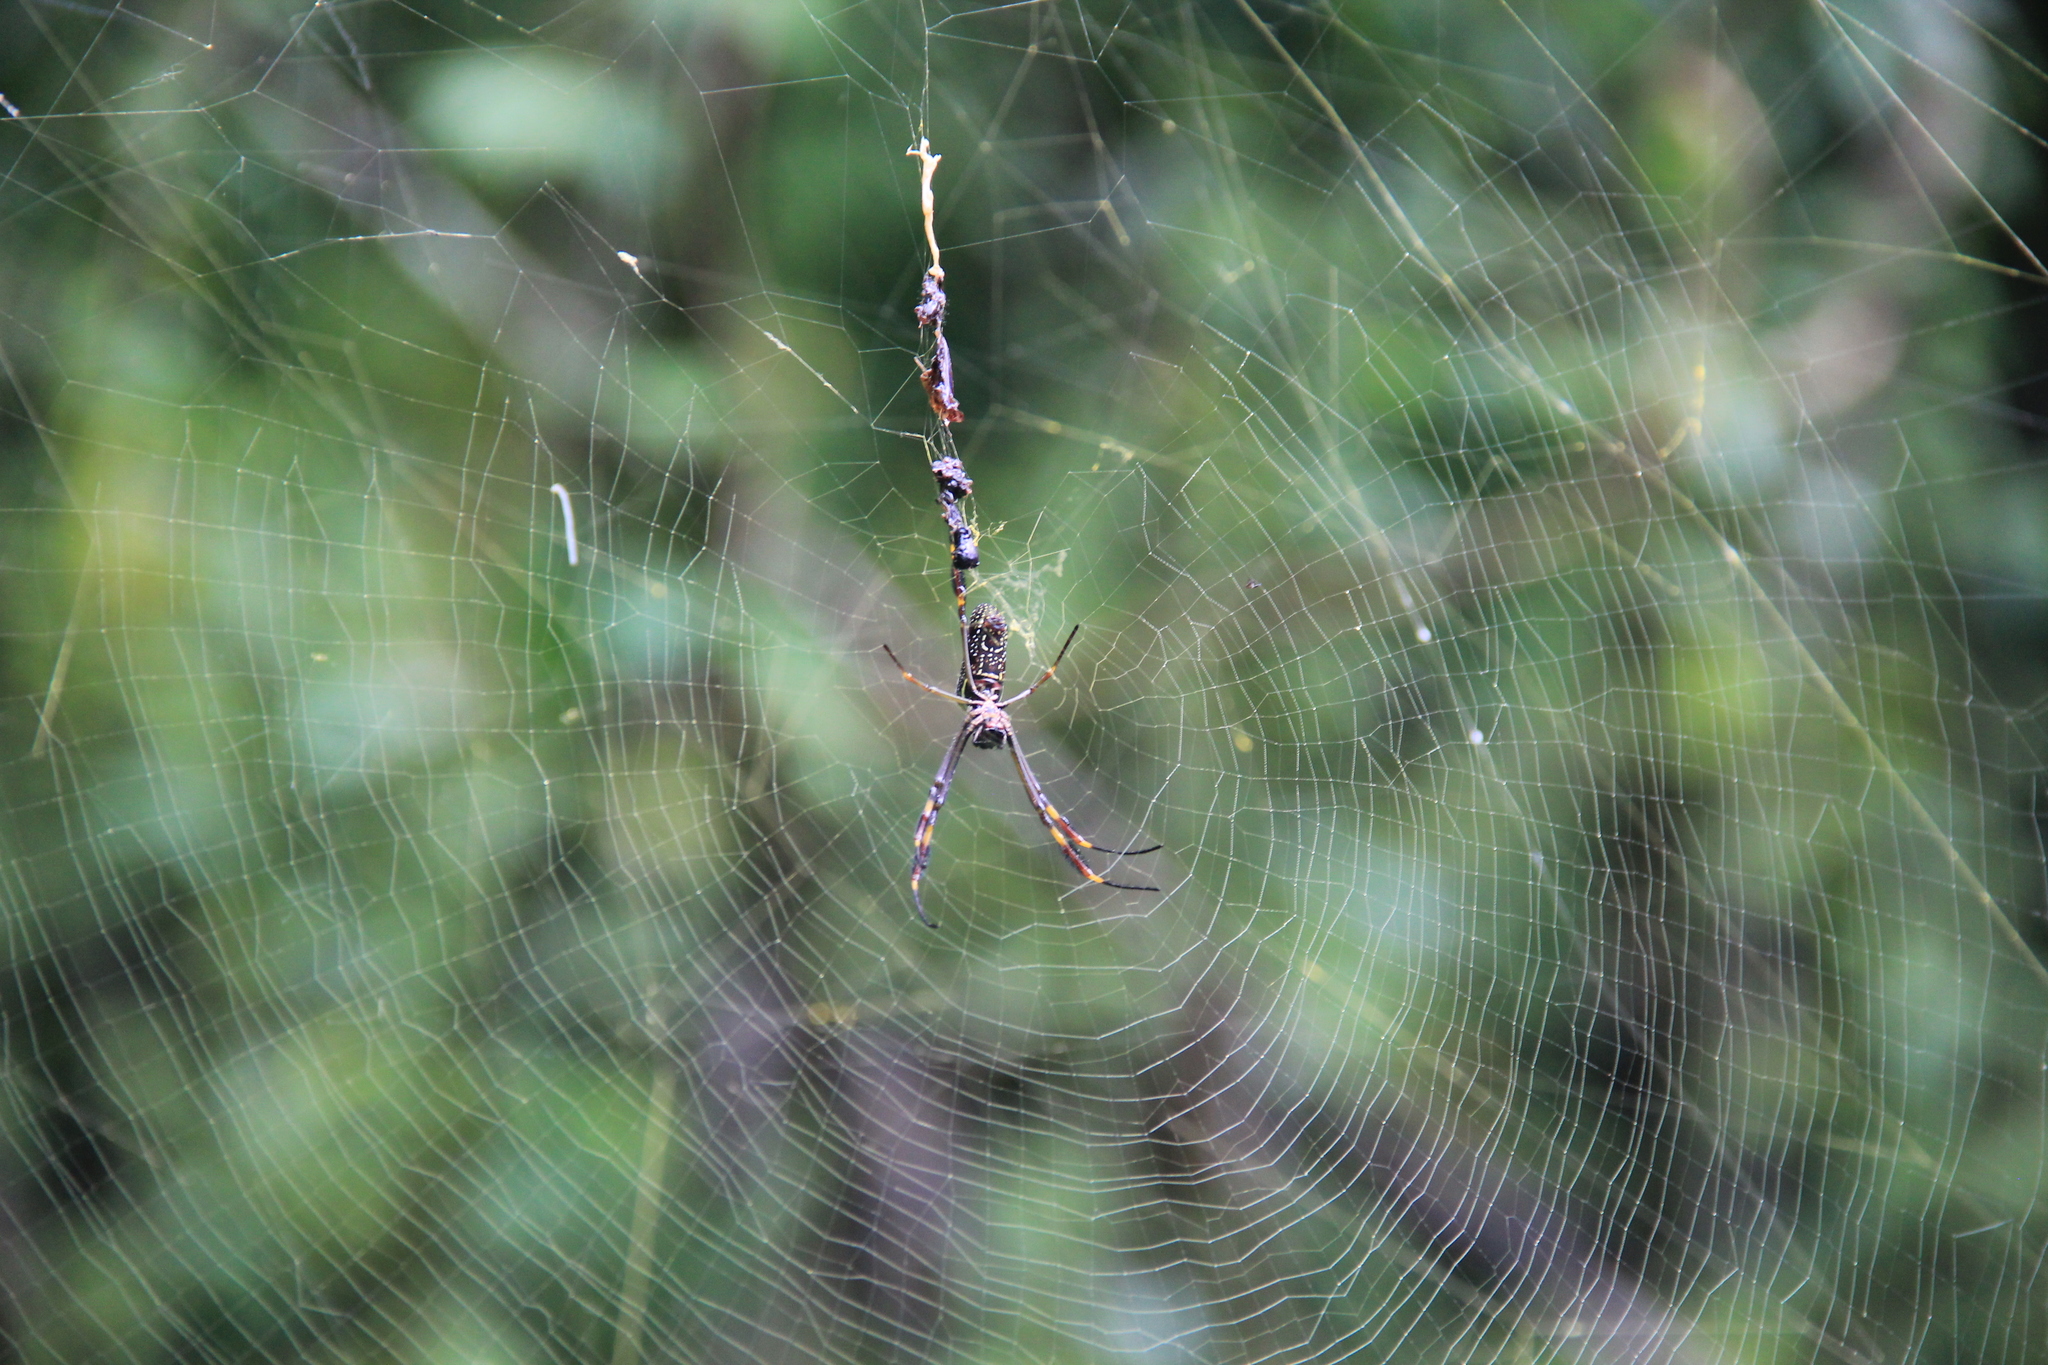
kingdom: Animalia
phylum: Arthropoda
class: Arachnida
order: Araneae
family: Araneidae
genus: Trichonephila
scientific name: Trichonephila clavipes
